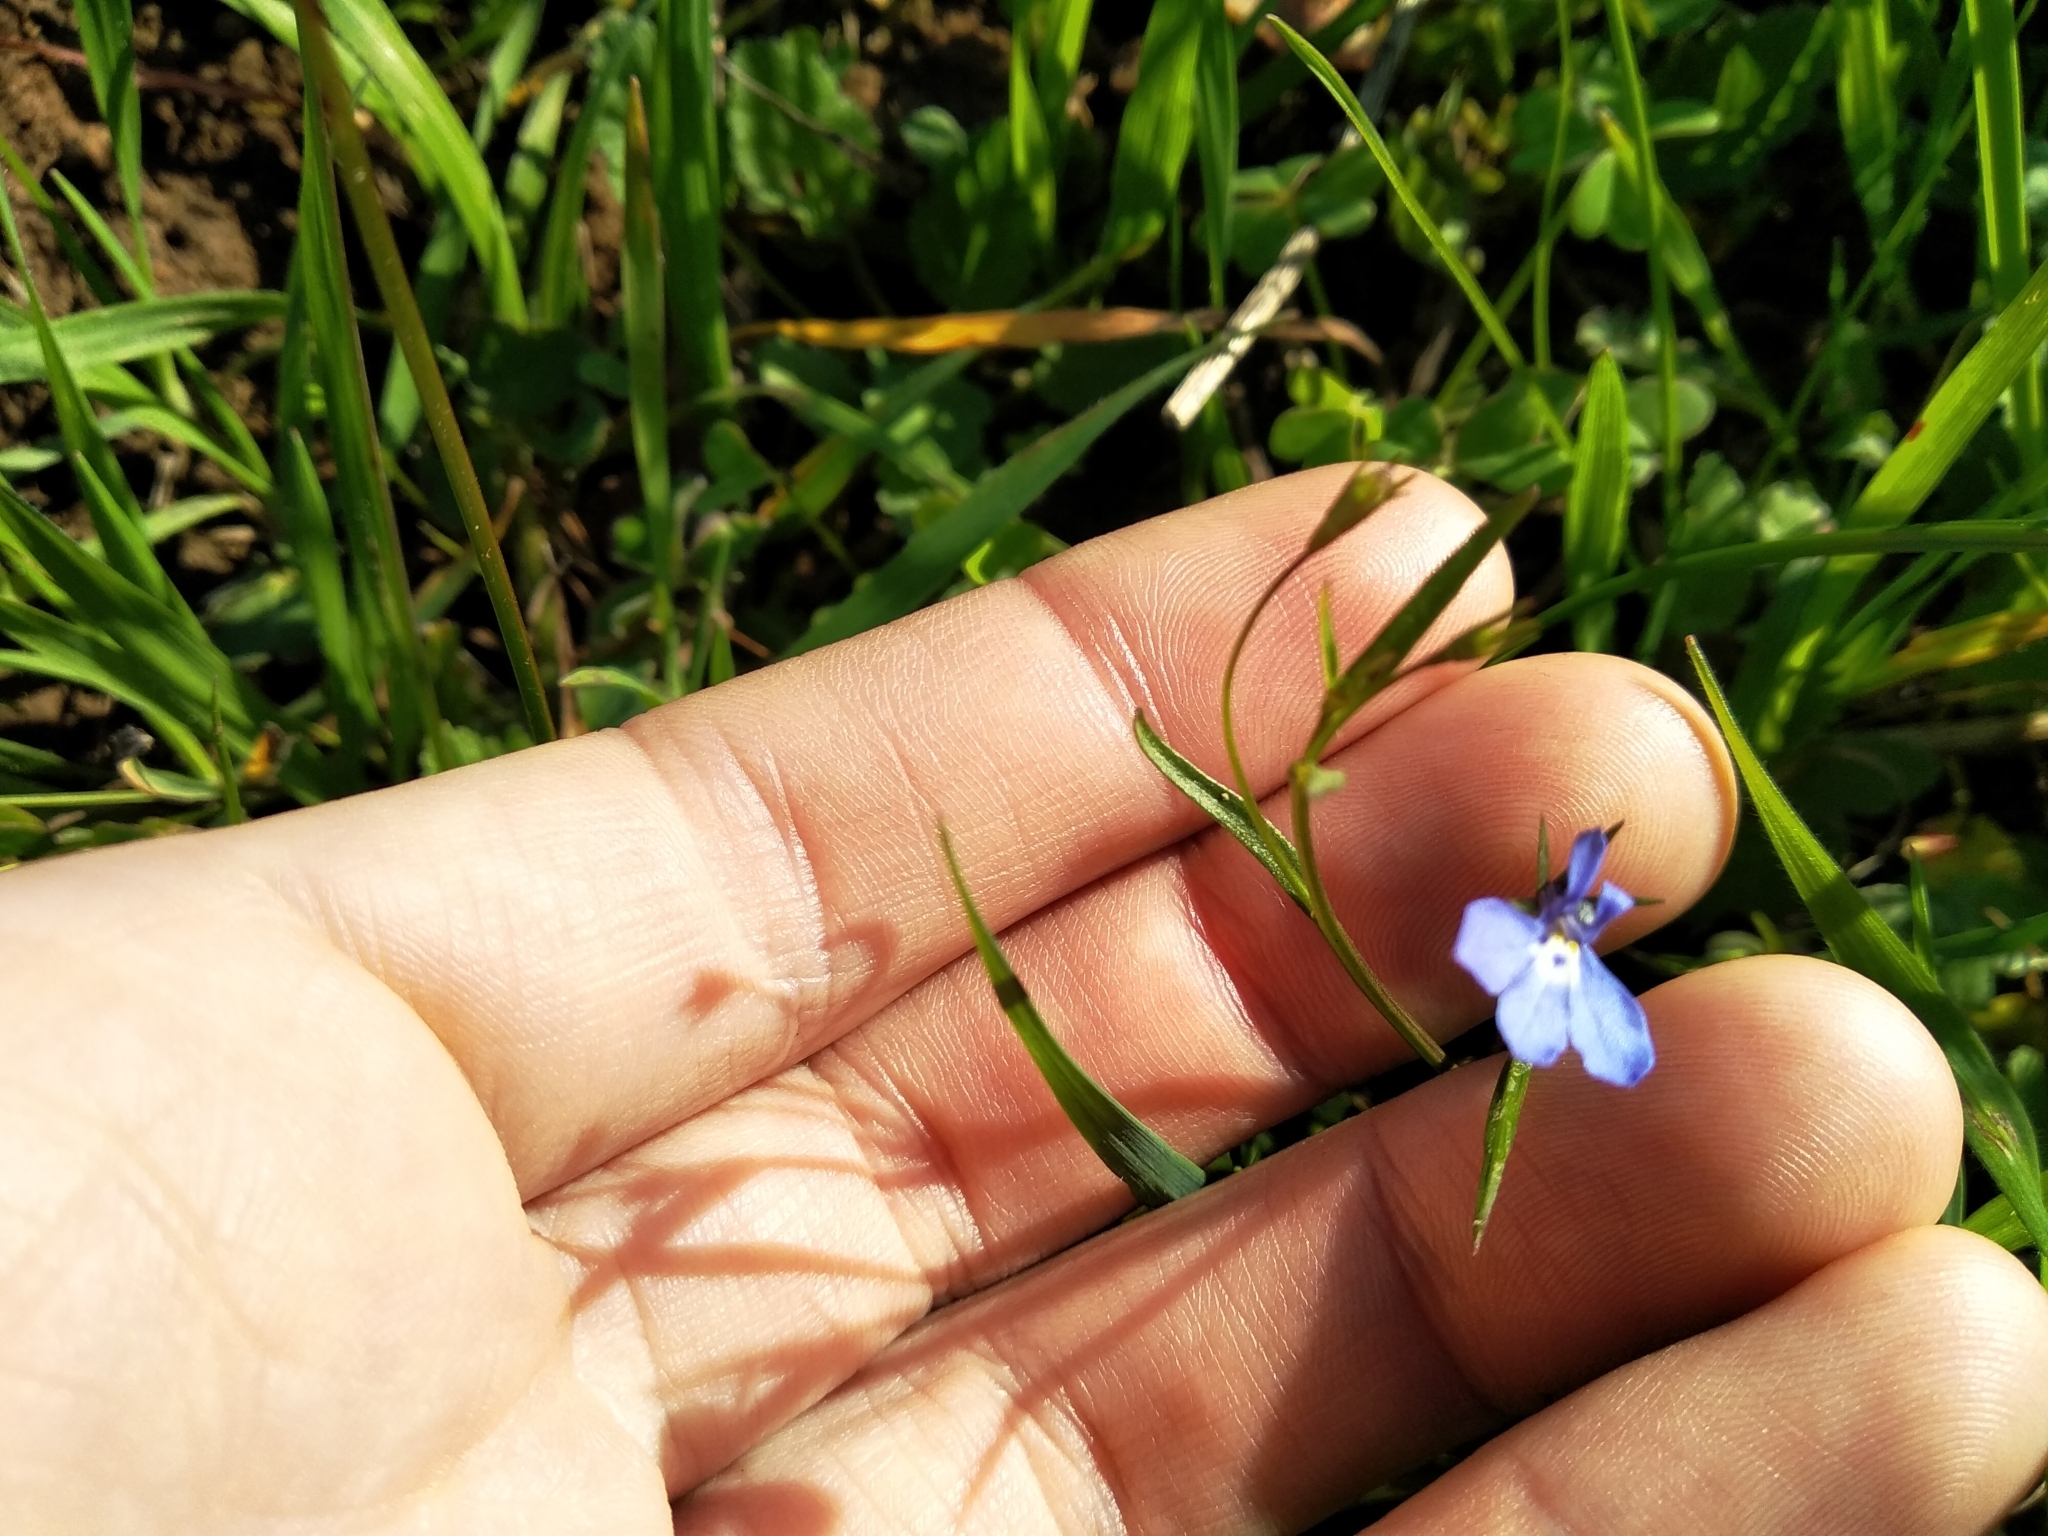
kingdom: Plantae
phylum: Tracheophyta
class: Magnoliopsida
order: Asterales
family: Campanulaceae
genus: Lobelia
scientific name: Lobelia erinus
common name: Edging lobelia
